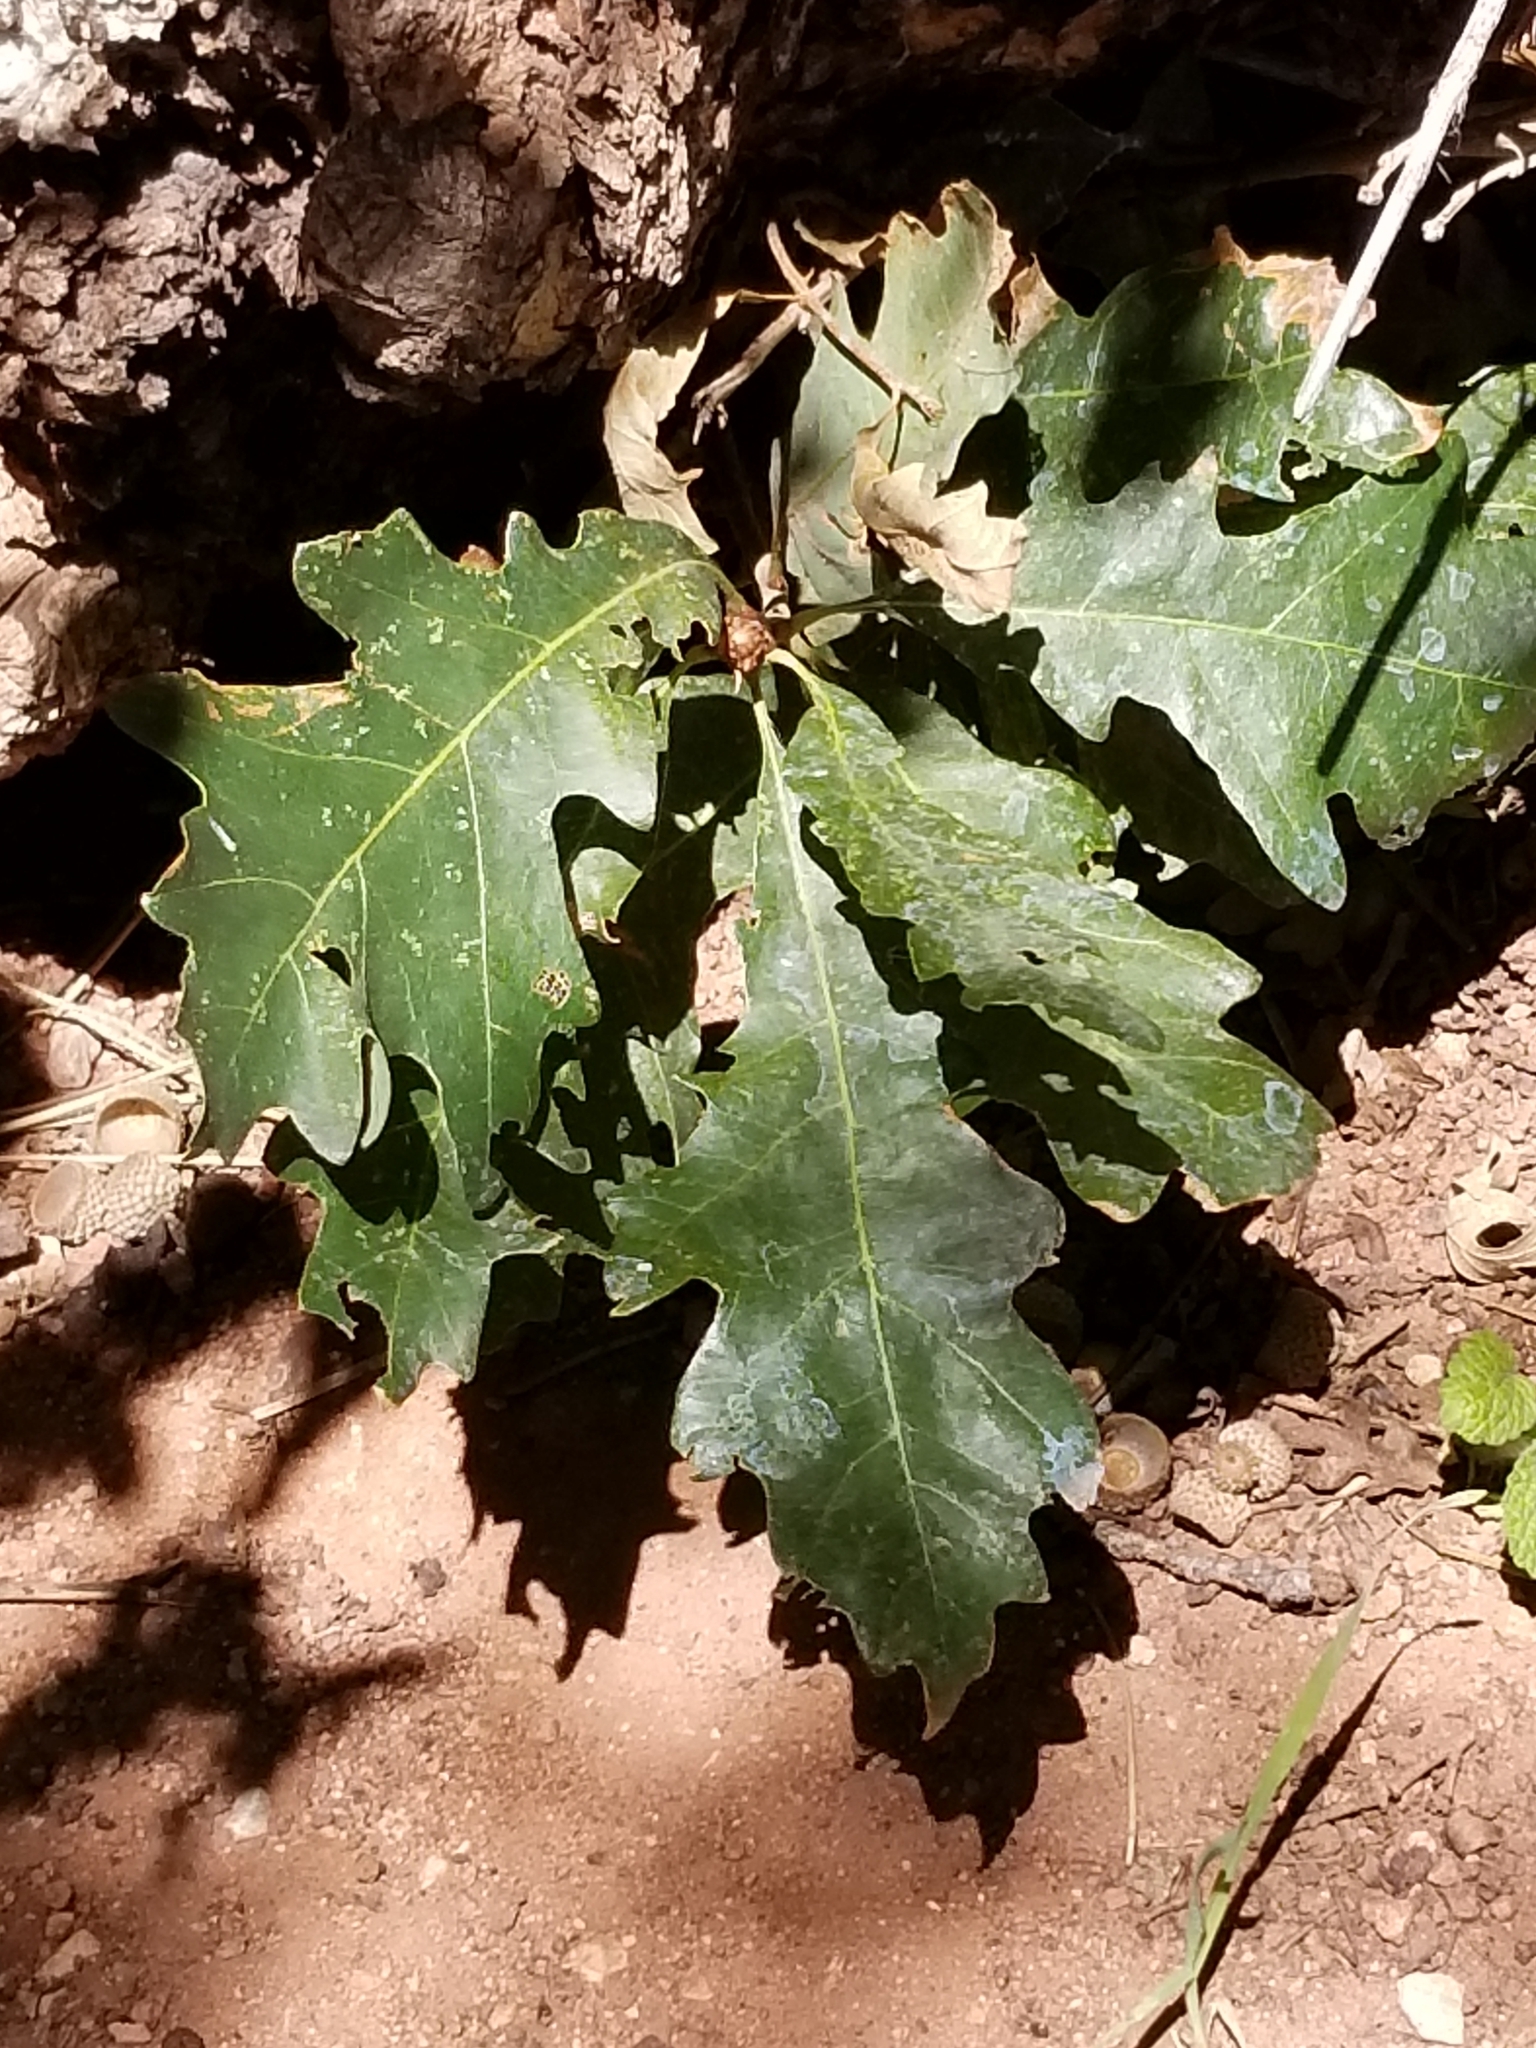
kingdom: Plantae
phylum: Tracheophyta
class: Magnoliopsida
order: Fagales
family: Fagaceae
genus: Quercus
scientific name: Quercus gambelii
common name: Gambel oak
